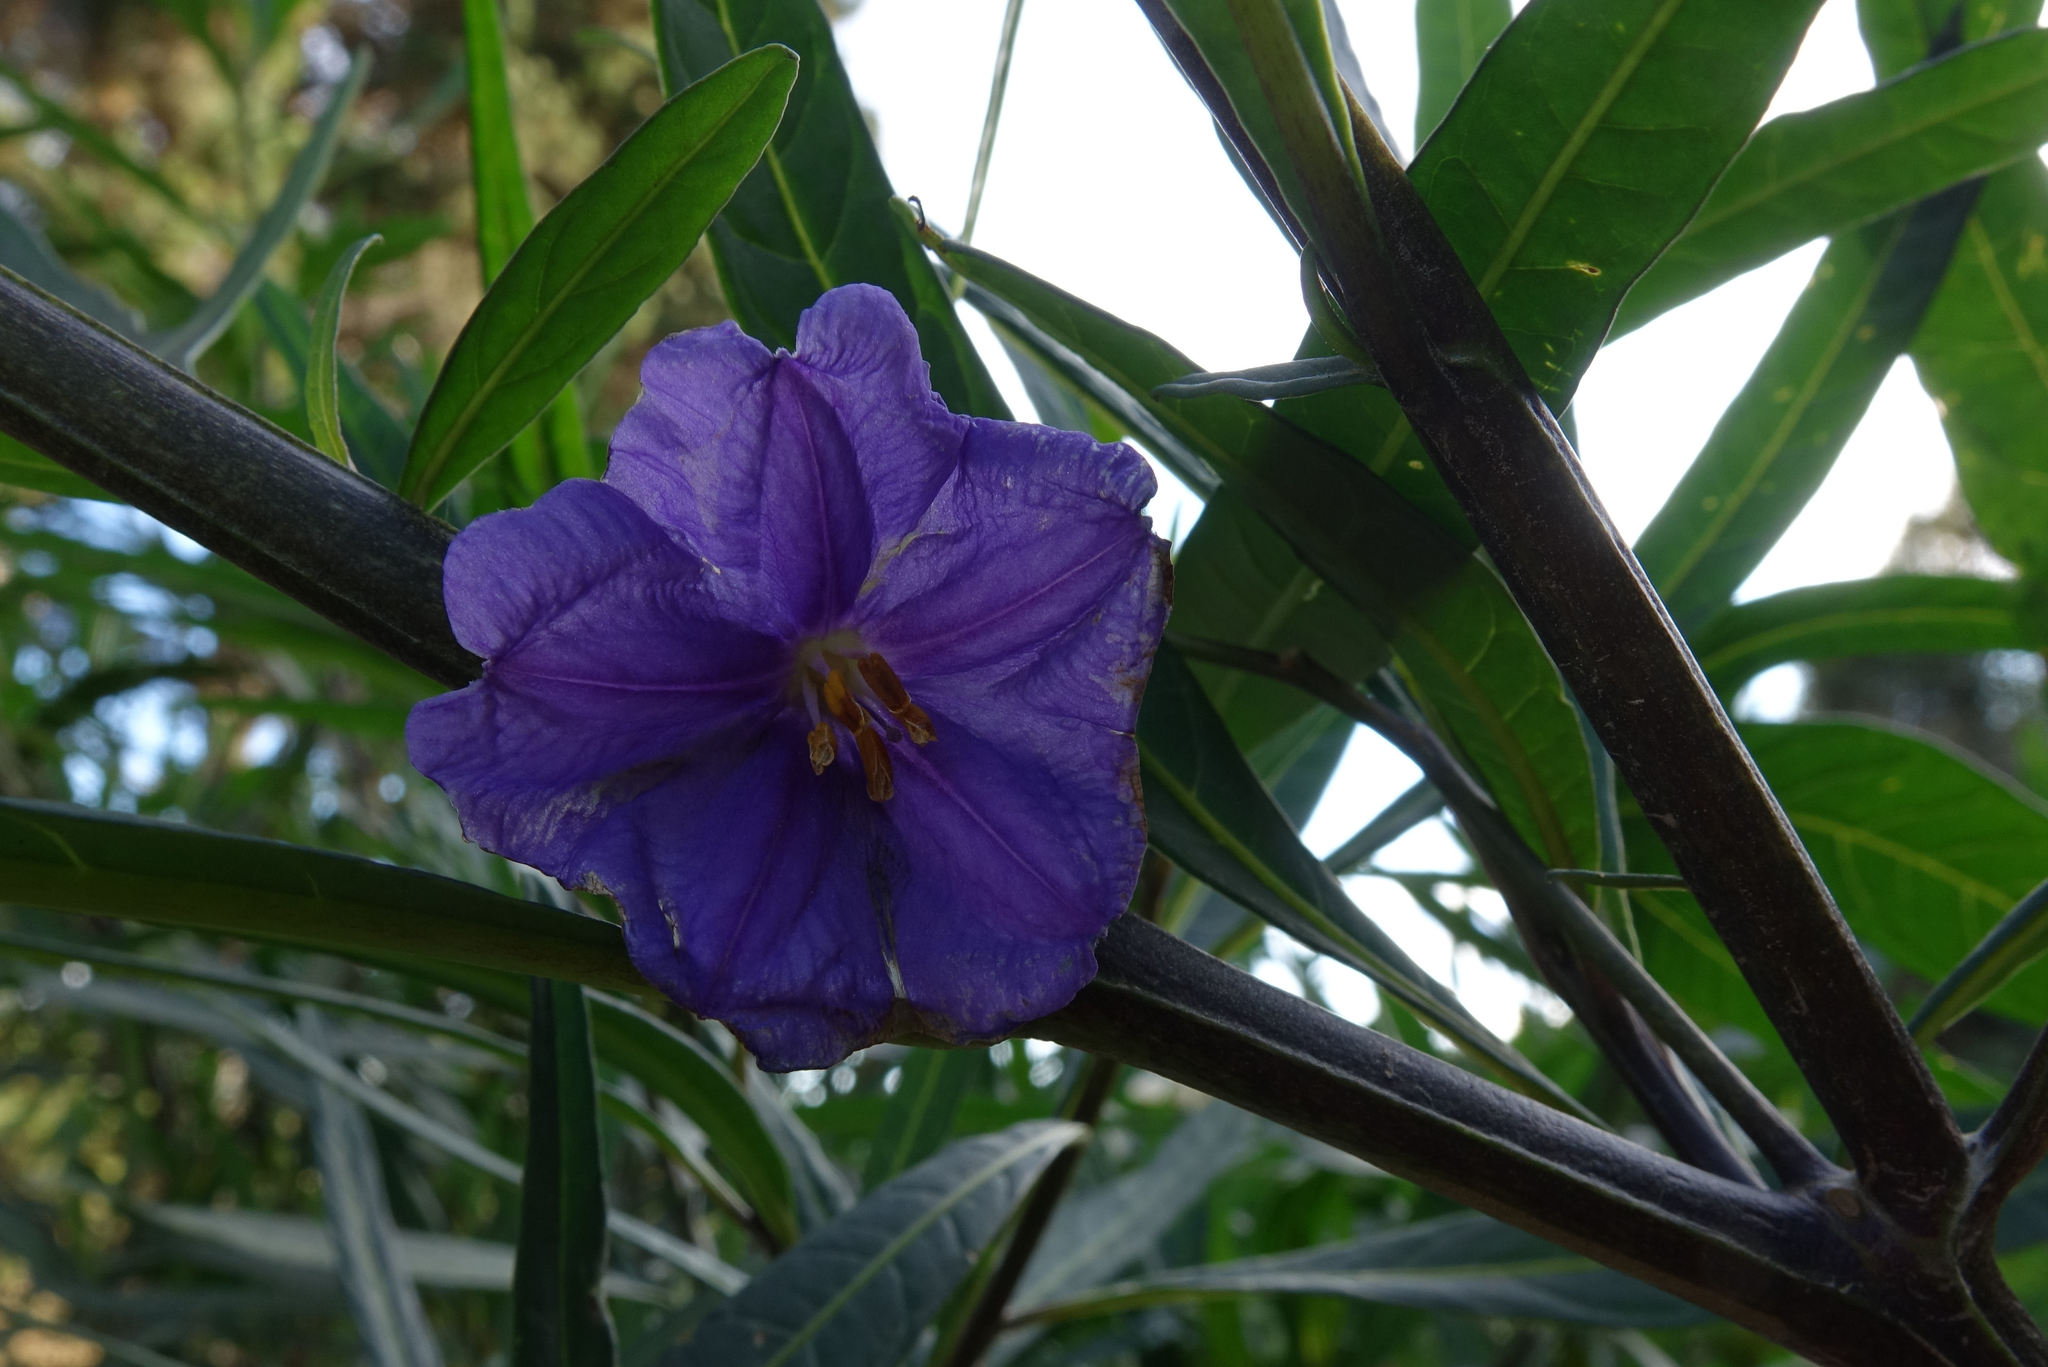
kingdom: Plantae
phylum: Tracheophyta
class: Magnoliopsida
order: Solanales
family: Solanaceae
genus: Solanum
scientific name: Solanum laciniatum
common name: Kangaroo-apple
